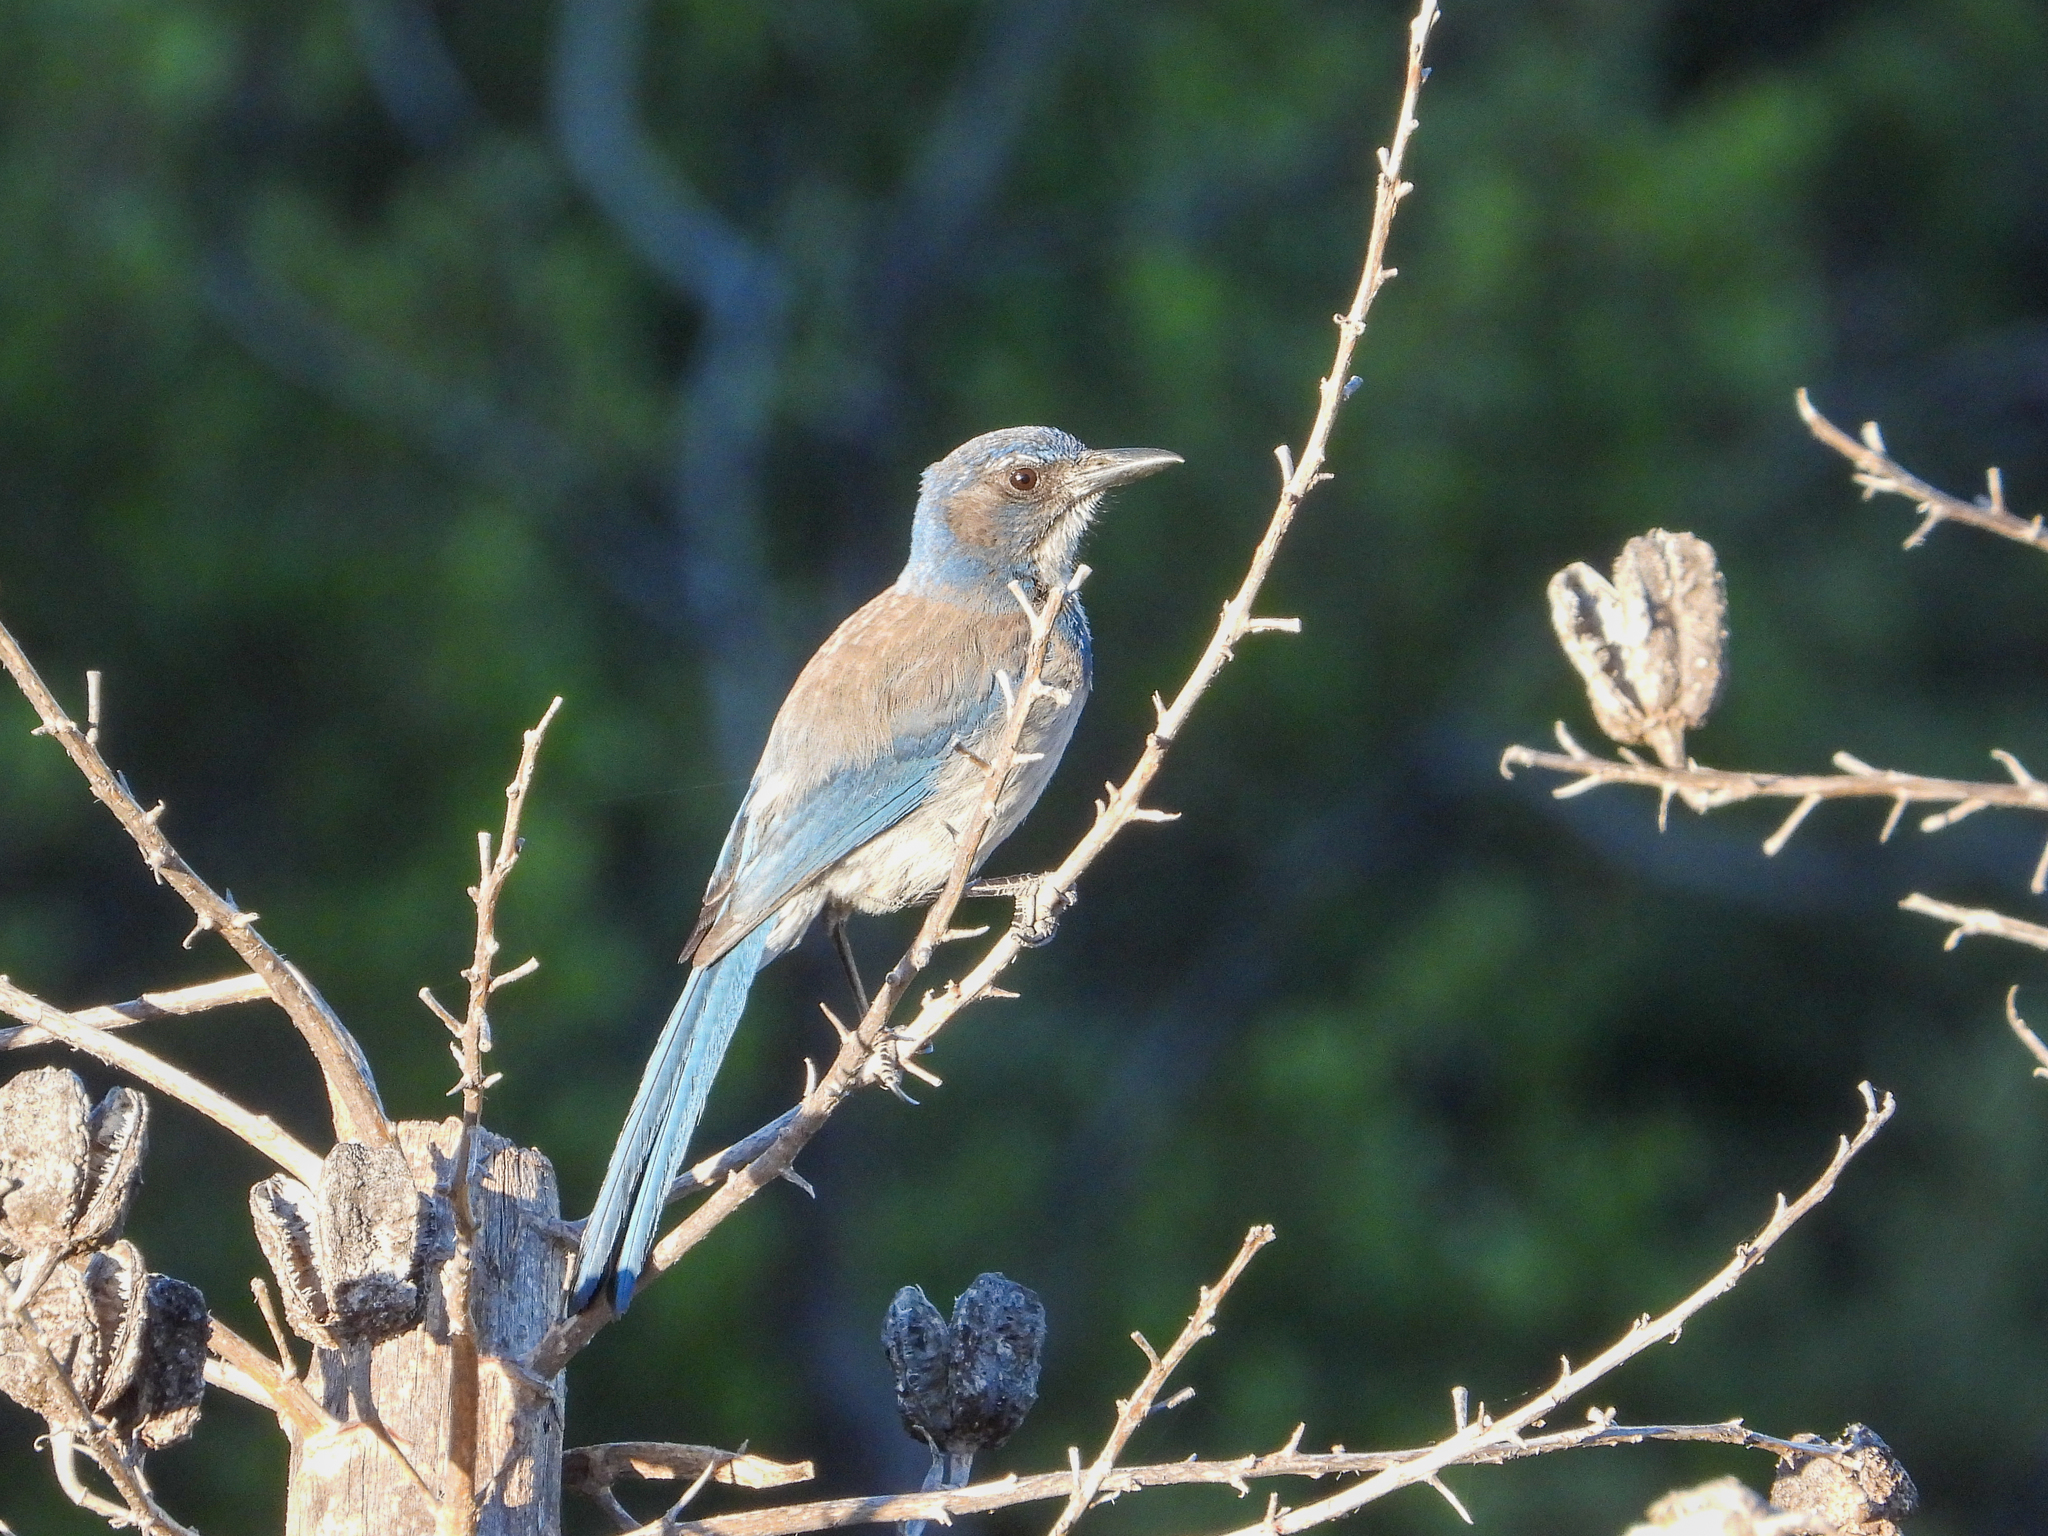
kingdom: Animalia
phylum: Chordata
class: Aves
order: Passeriformes
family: Corvidae
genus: Aphelocoma
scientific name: Aphelocoma californica
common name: California scrub-jay
